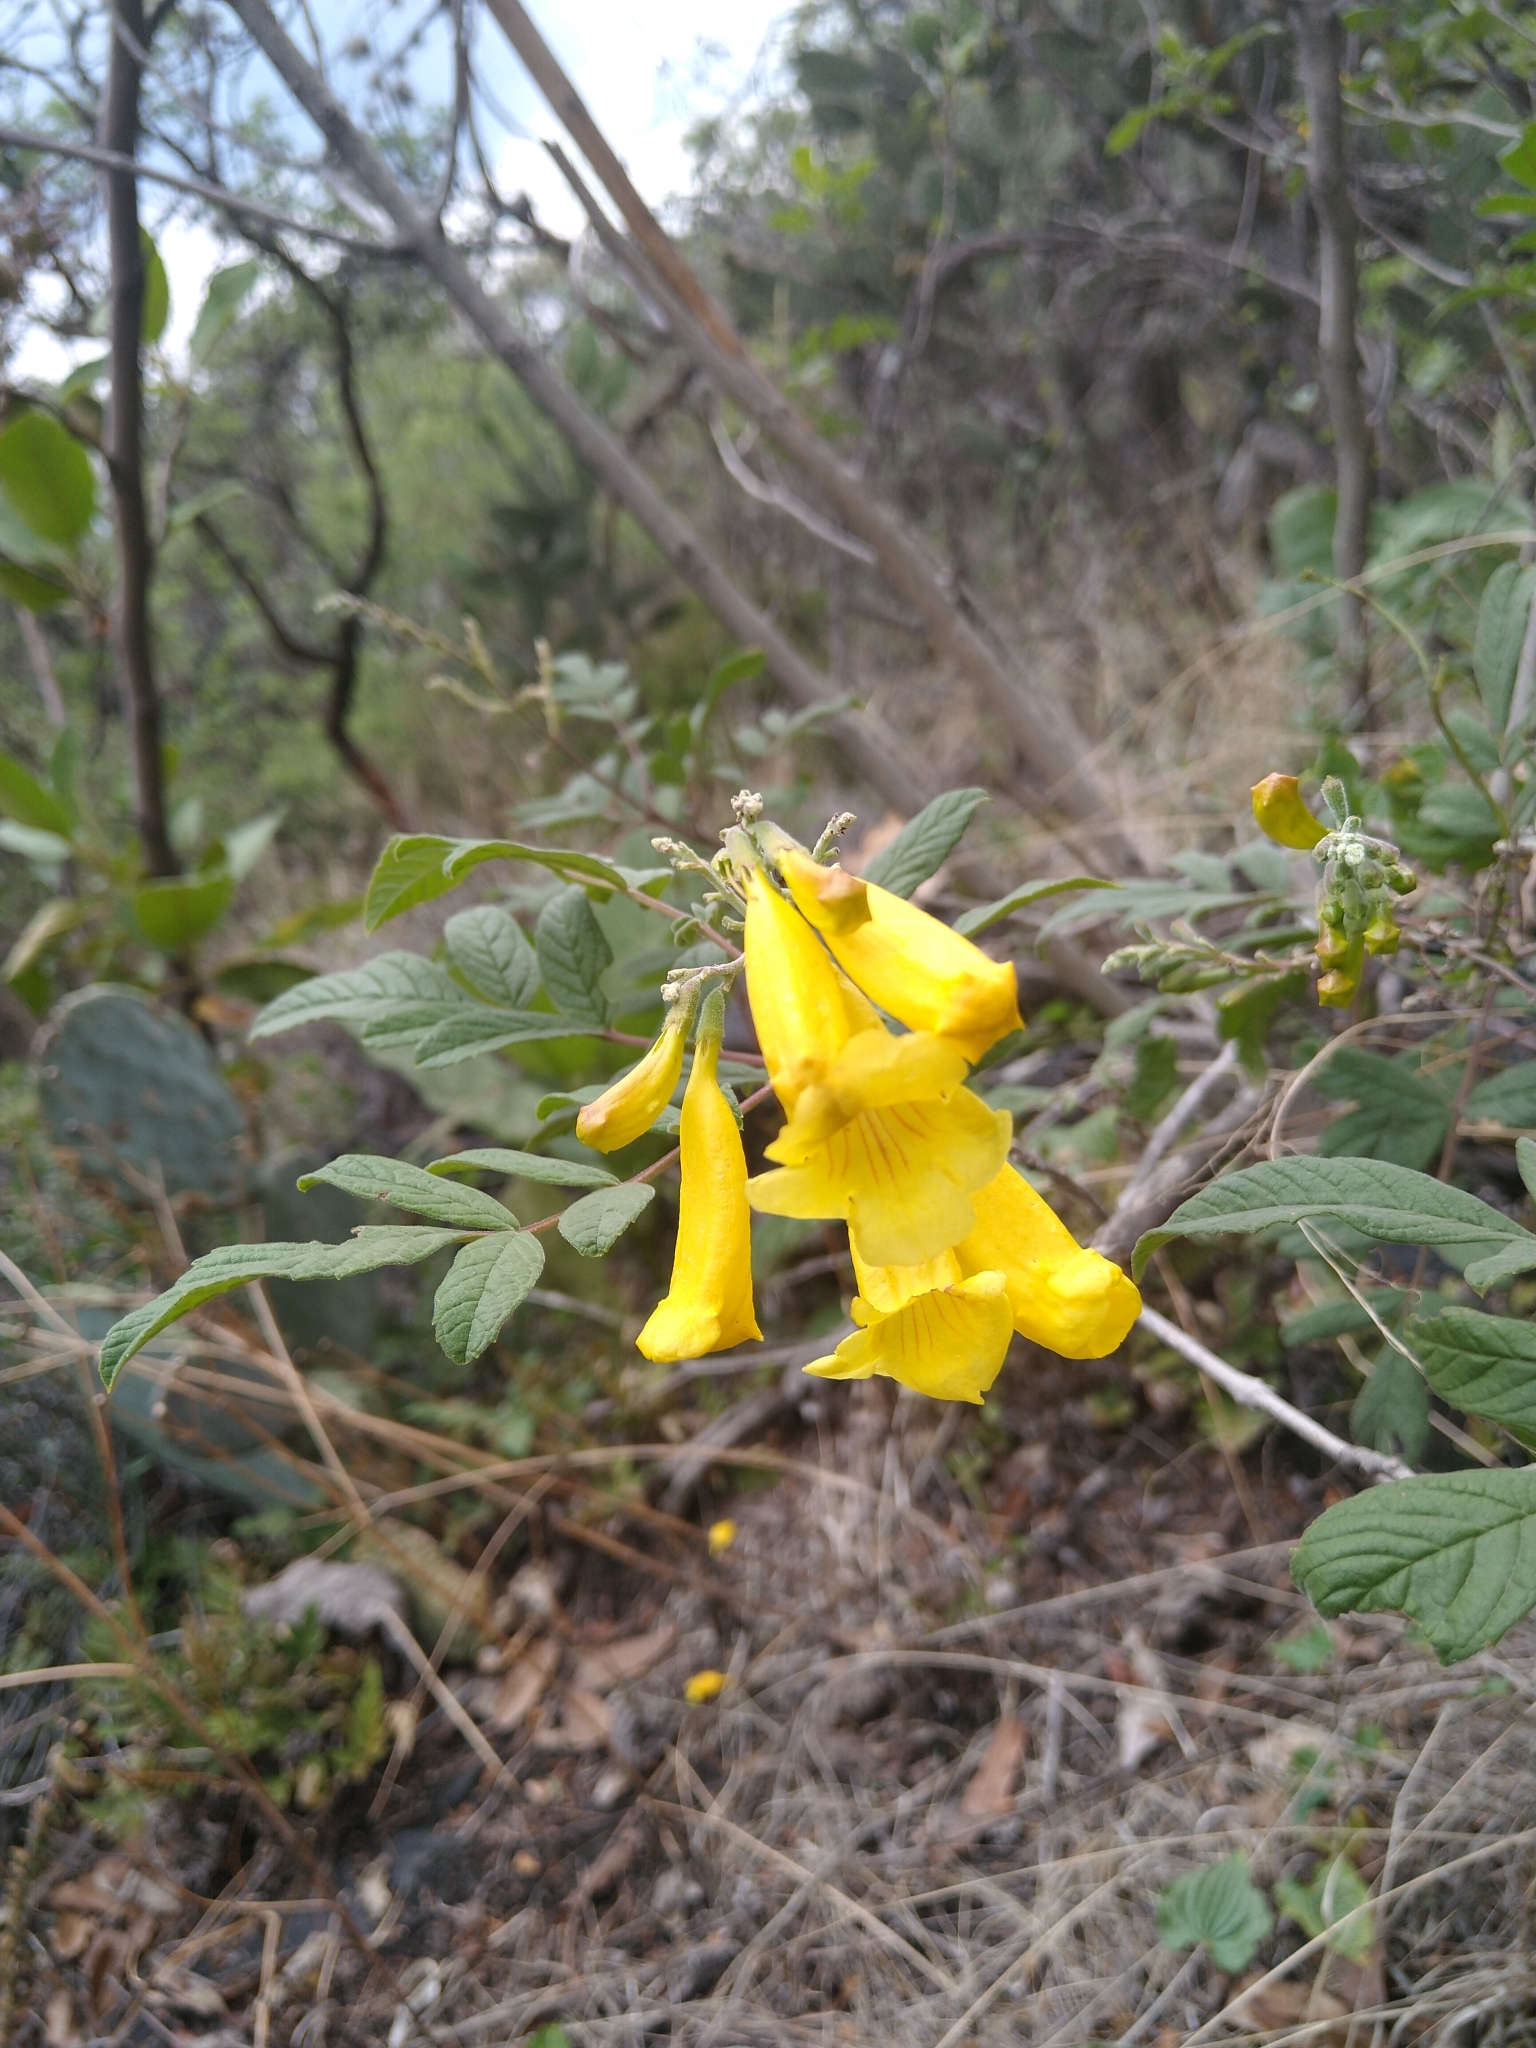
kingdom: Plantae
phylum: Tracheophyta
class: Magnoliopsida
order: Lamiales
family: Bignoniaceae
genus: Tecoma
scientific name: Tecoma stans
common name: Yellow trumpetbush
